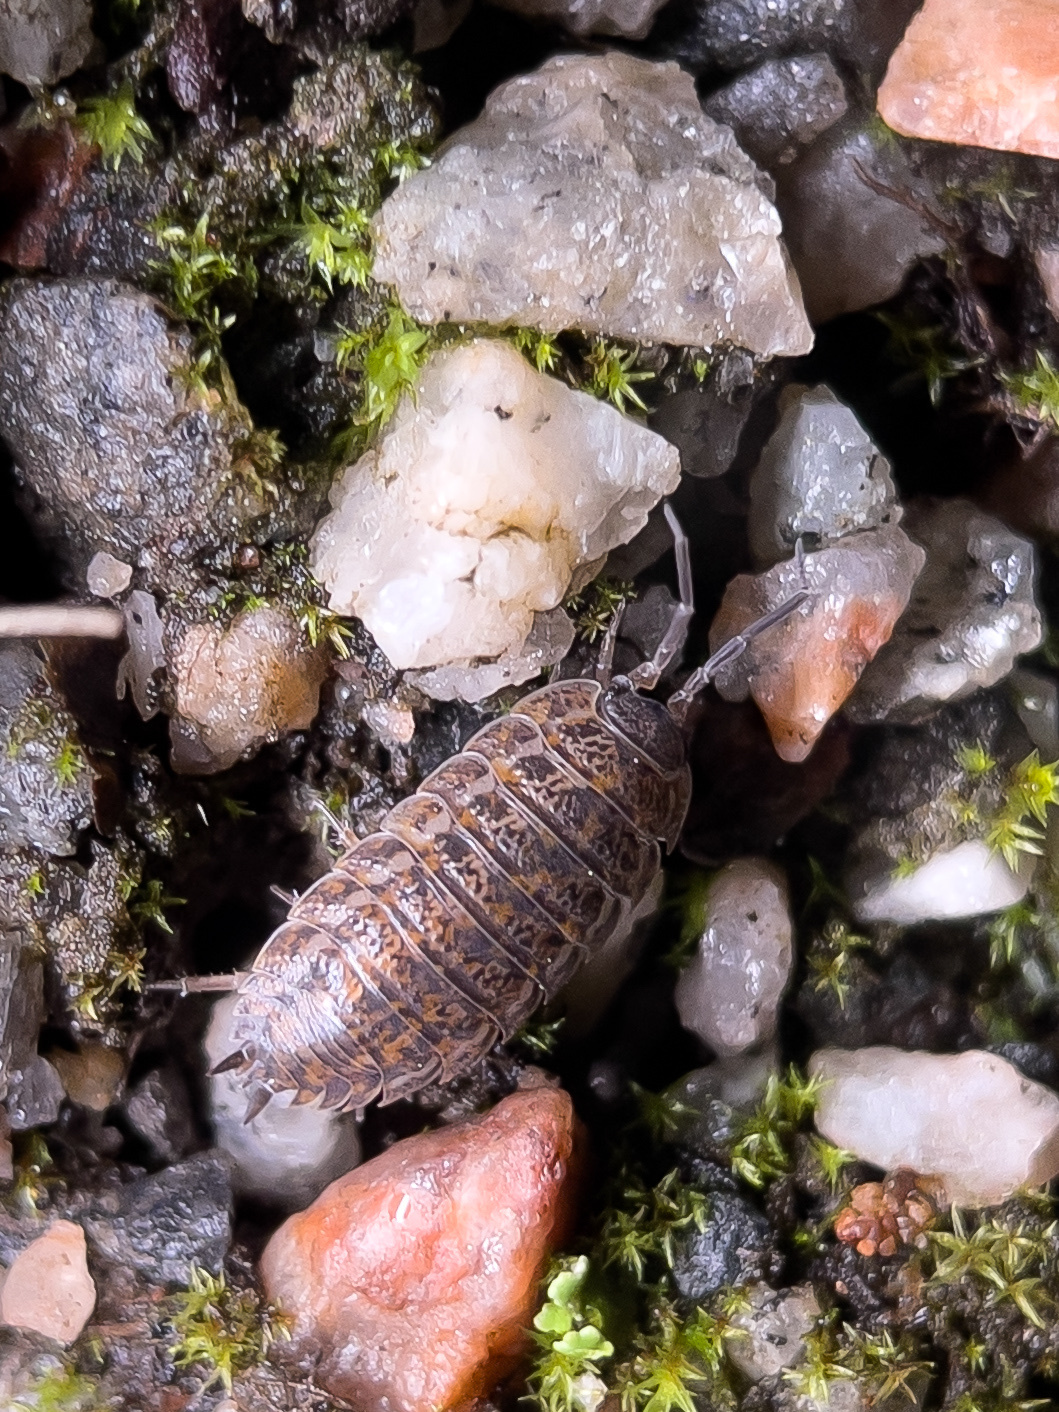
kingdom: Animalia
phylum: Arthropoda
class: Malacostraca
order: Isopoda
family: Trachelipodidae
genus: Trachelipus
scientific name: Trachelipus rathkii
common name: Isopod
